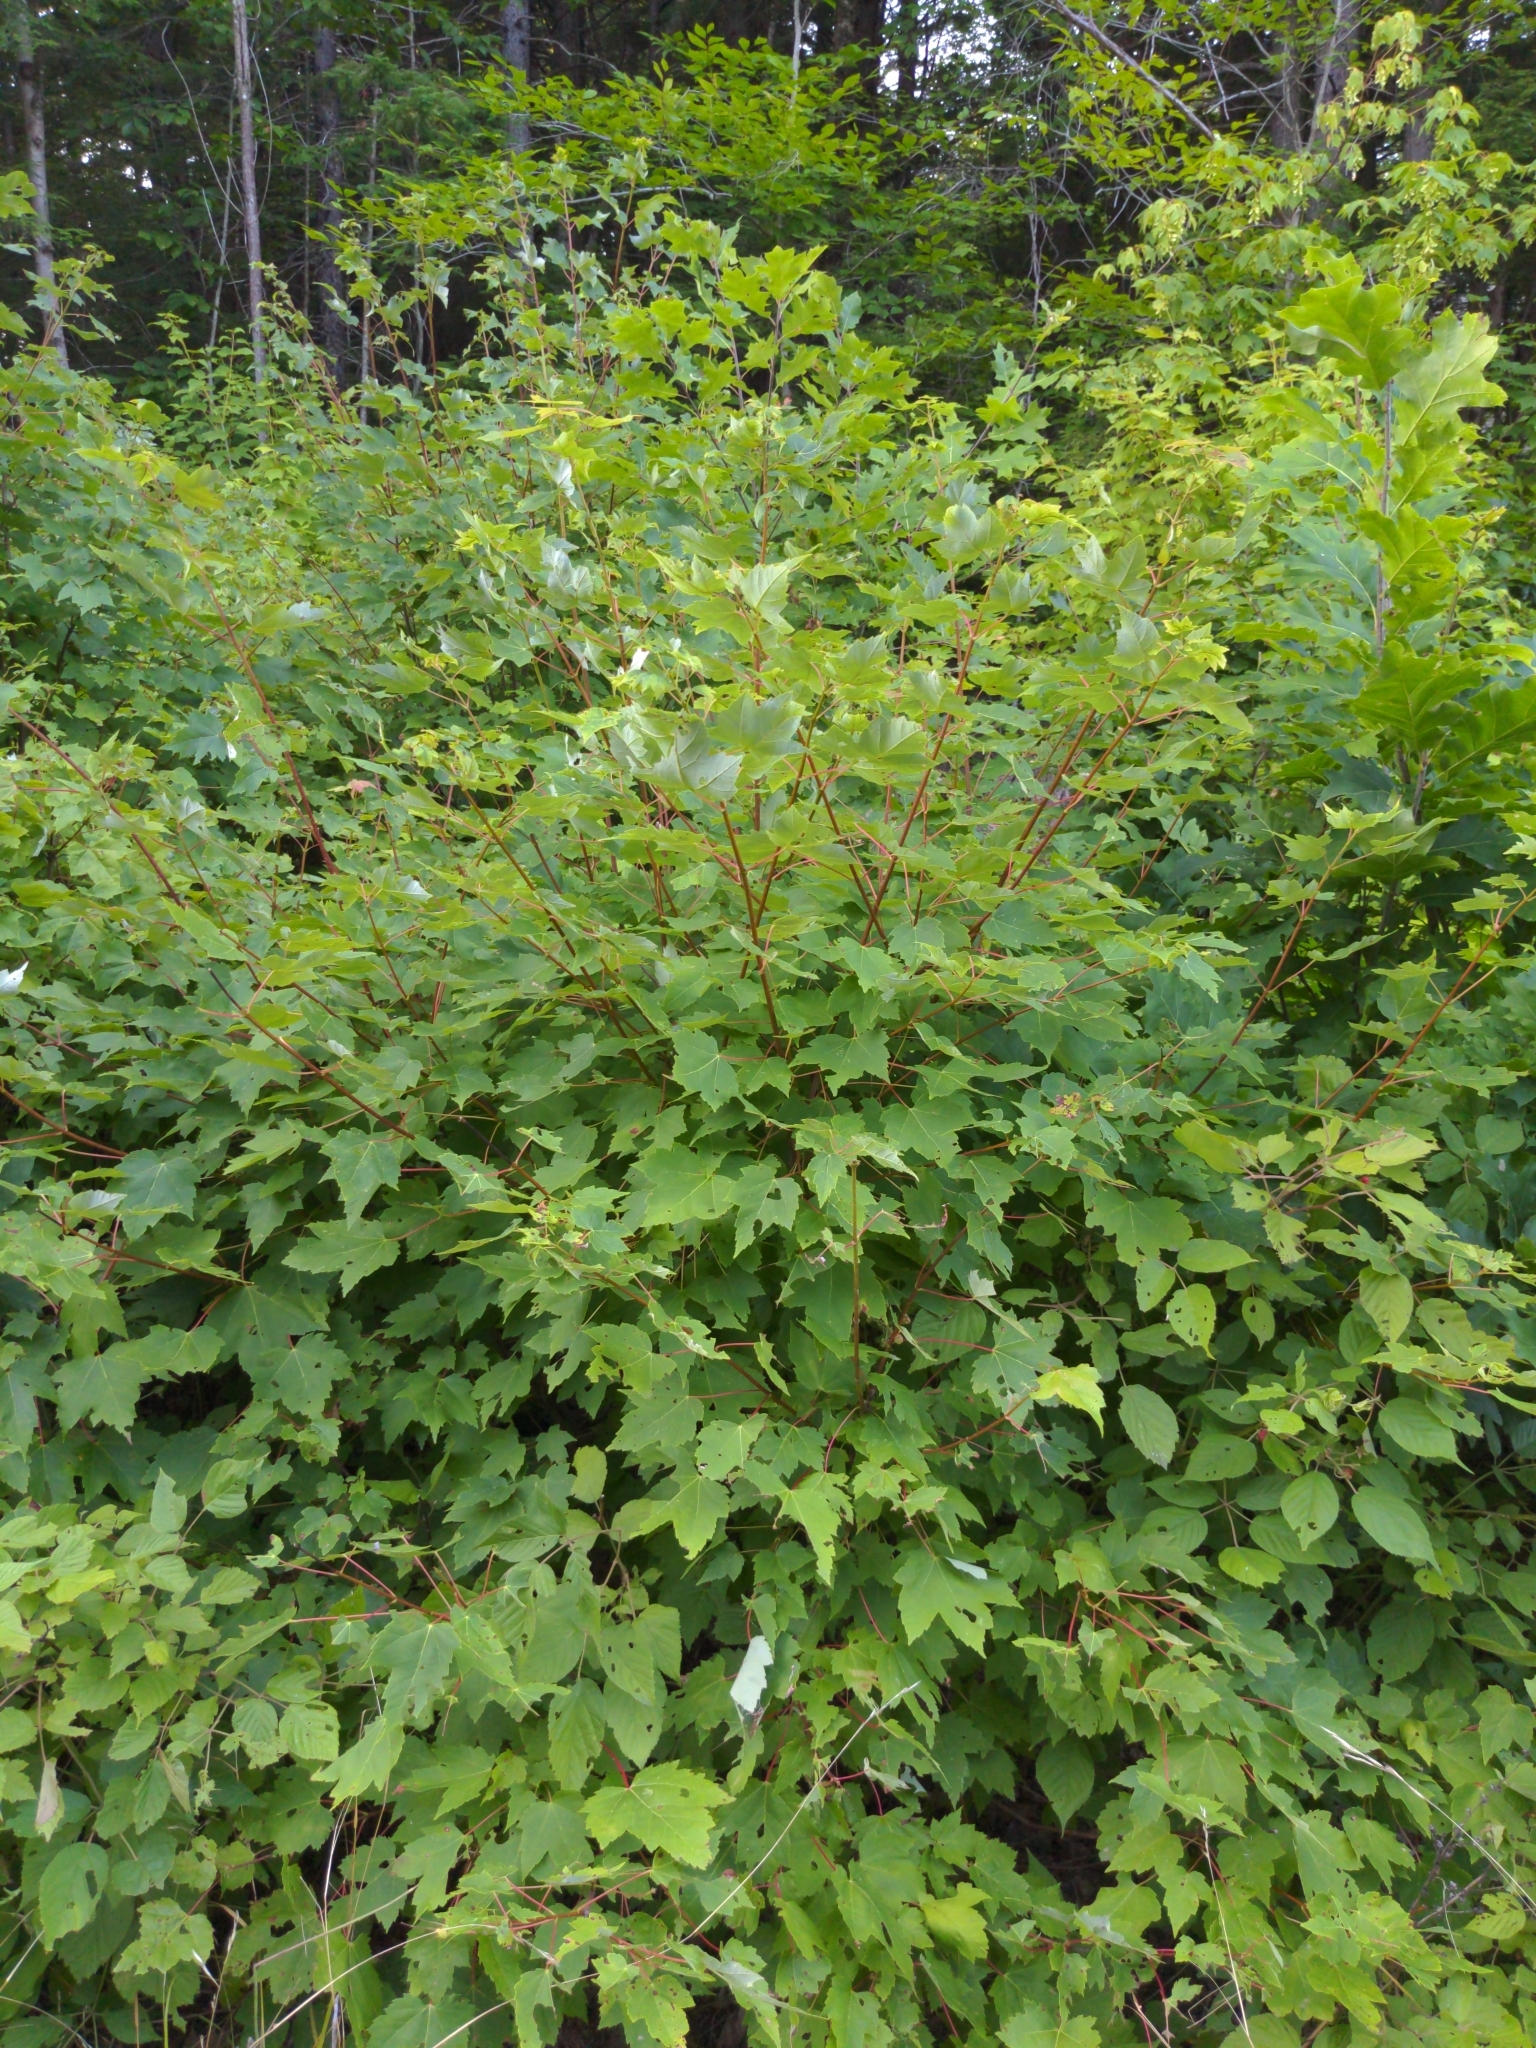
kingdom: Plantae
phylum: Tracheophyta
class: Magnoliopsida
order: Sapindales
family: Sapindaceae
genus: Acer
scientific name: Acer rubrum
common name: Red maple
